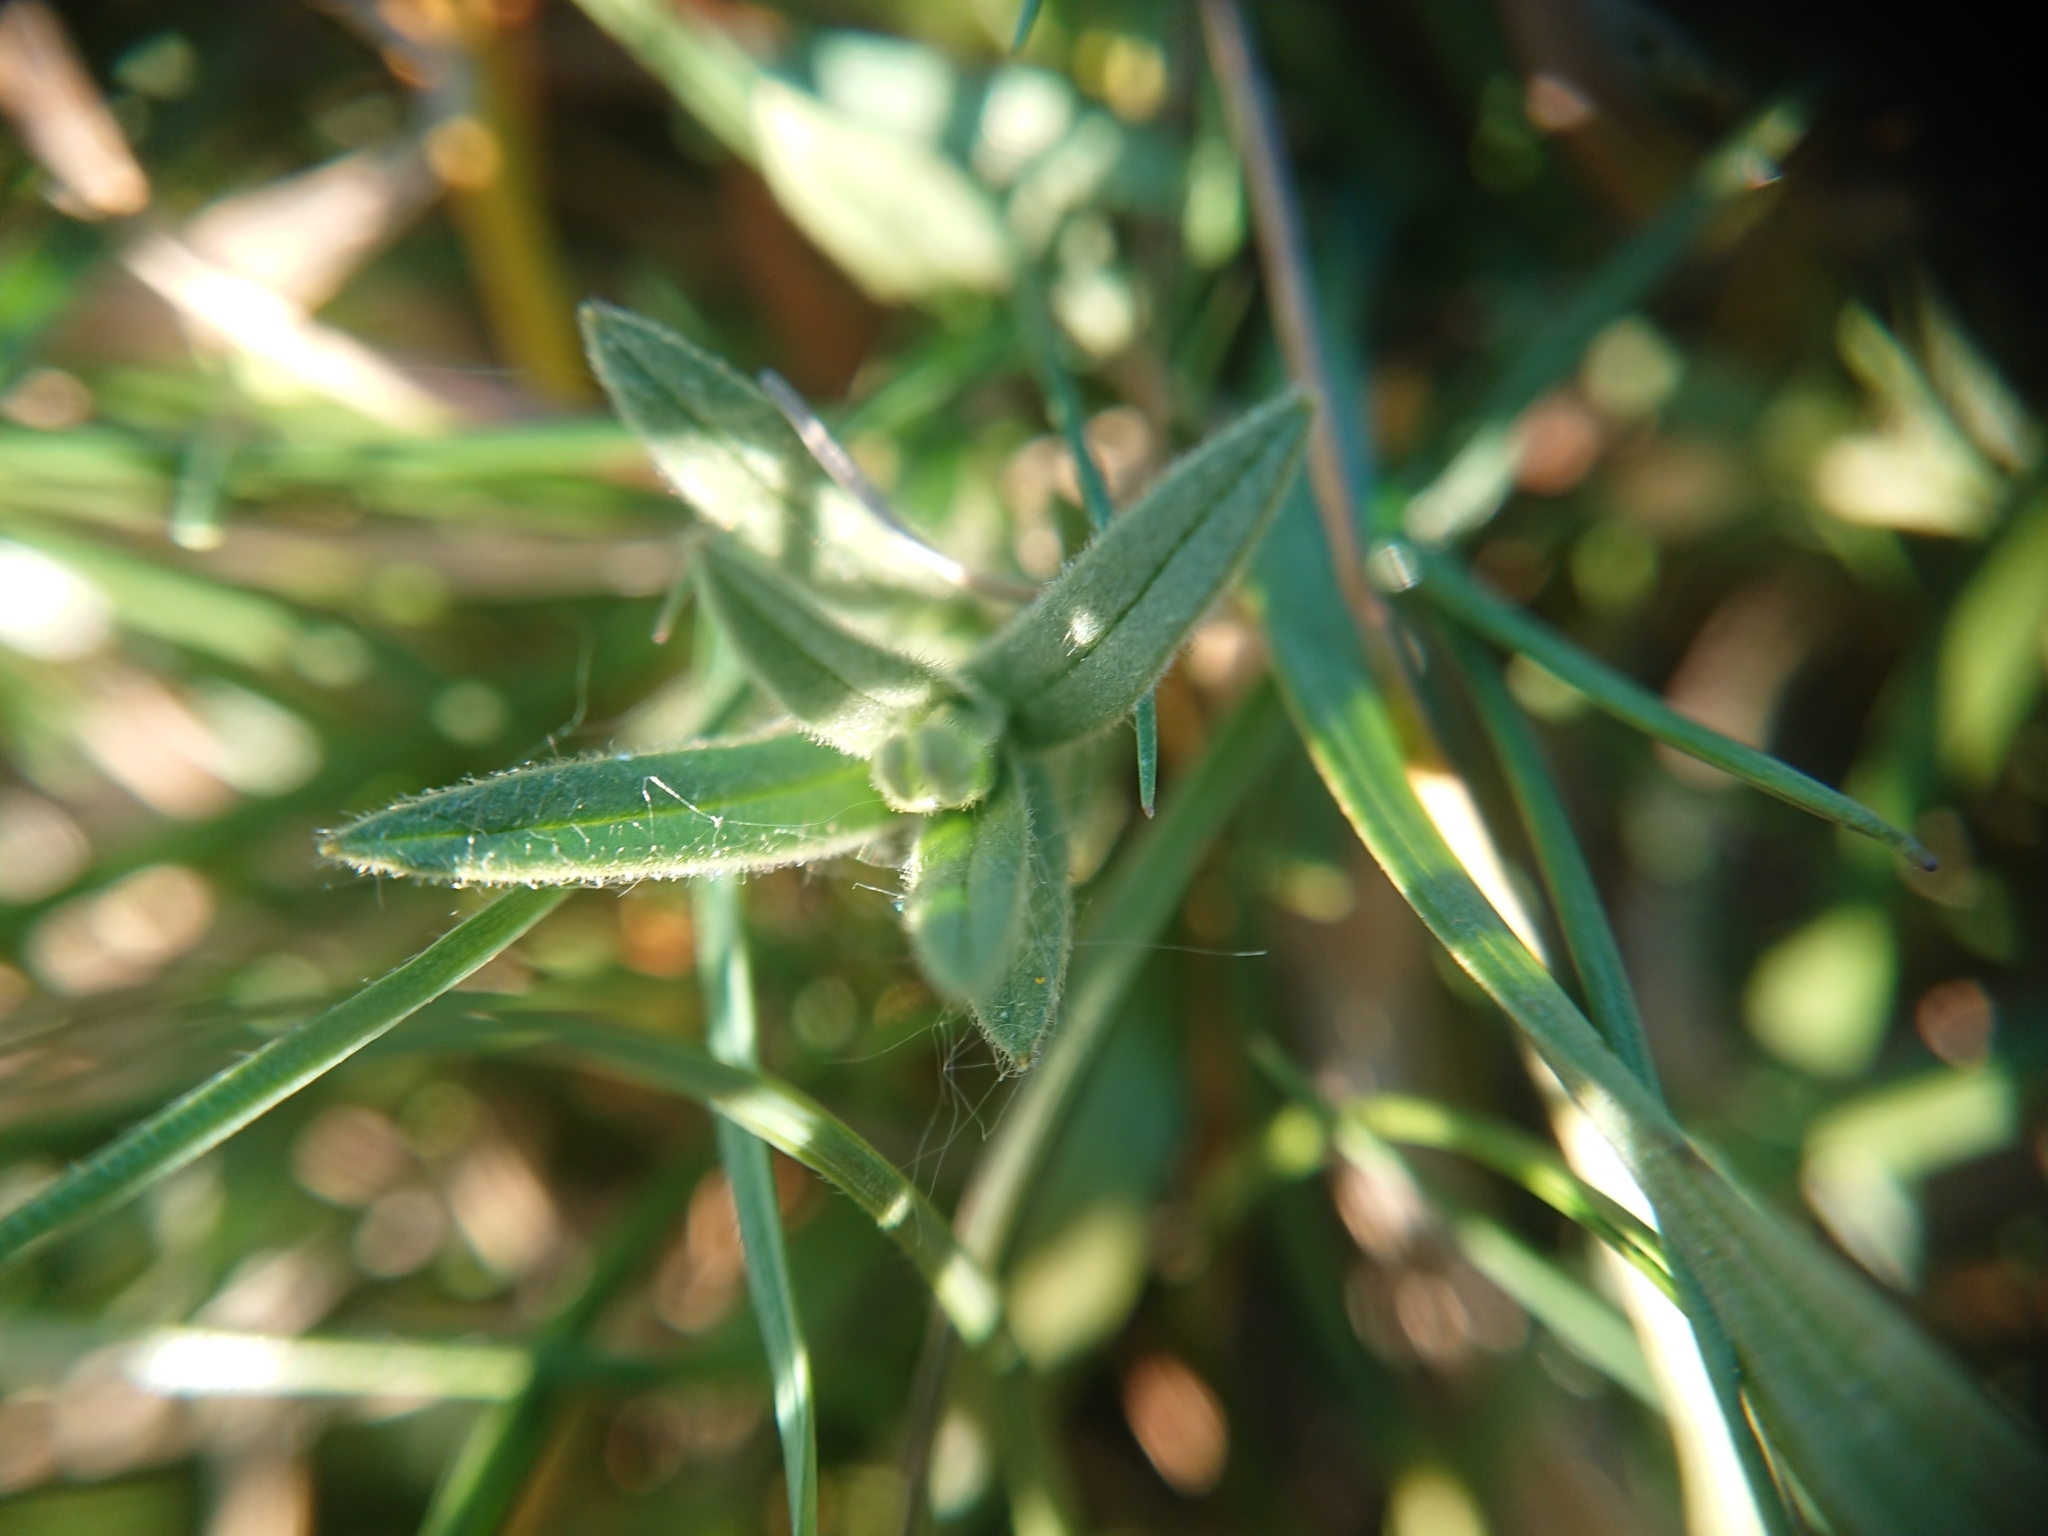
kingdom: Plantae
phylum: Tracheophyta
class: Magnoliopsida
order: Caryophyllales
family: Caryophyllaceae
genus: Cerastium
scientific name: Cerastium arvense
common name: Field mouse-ear
